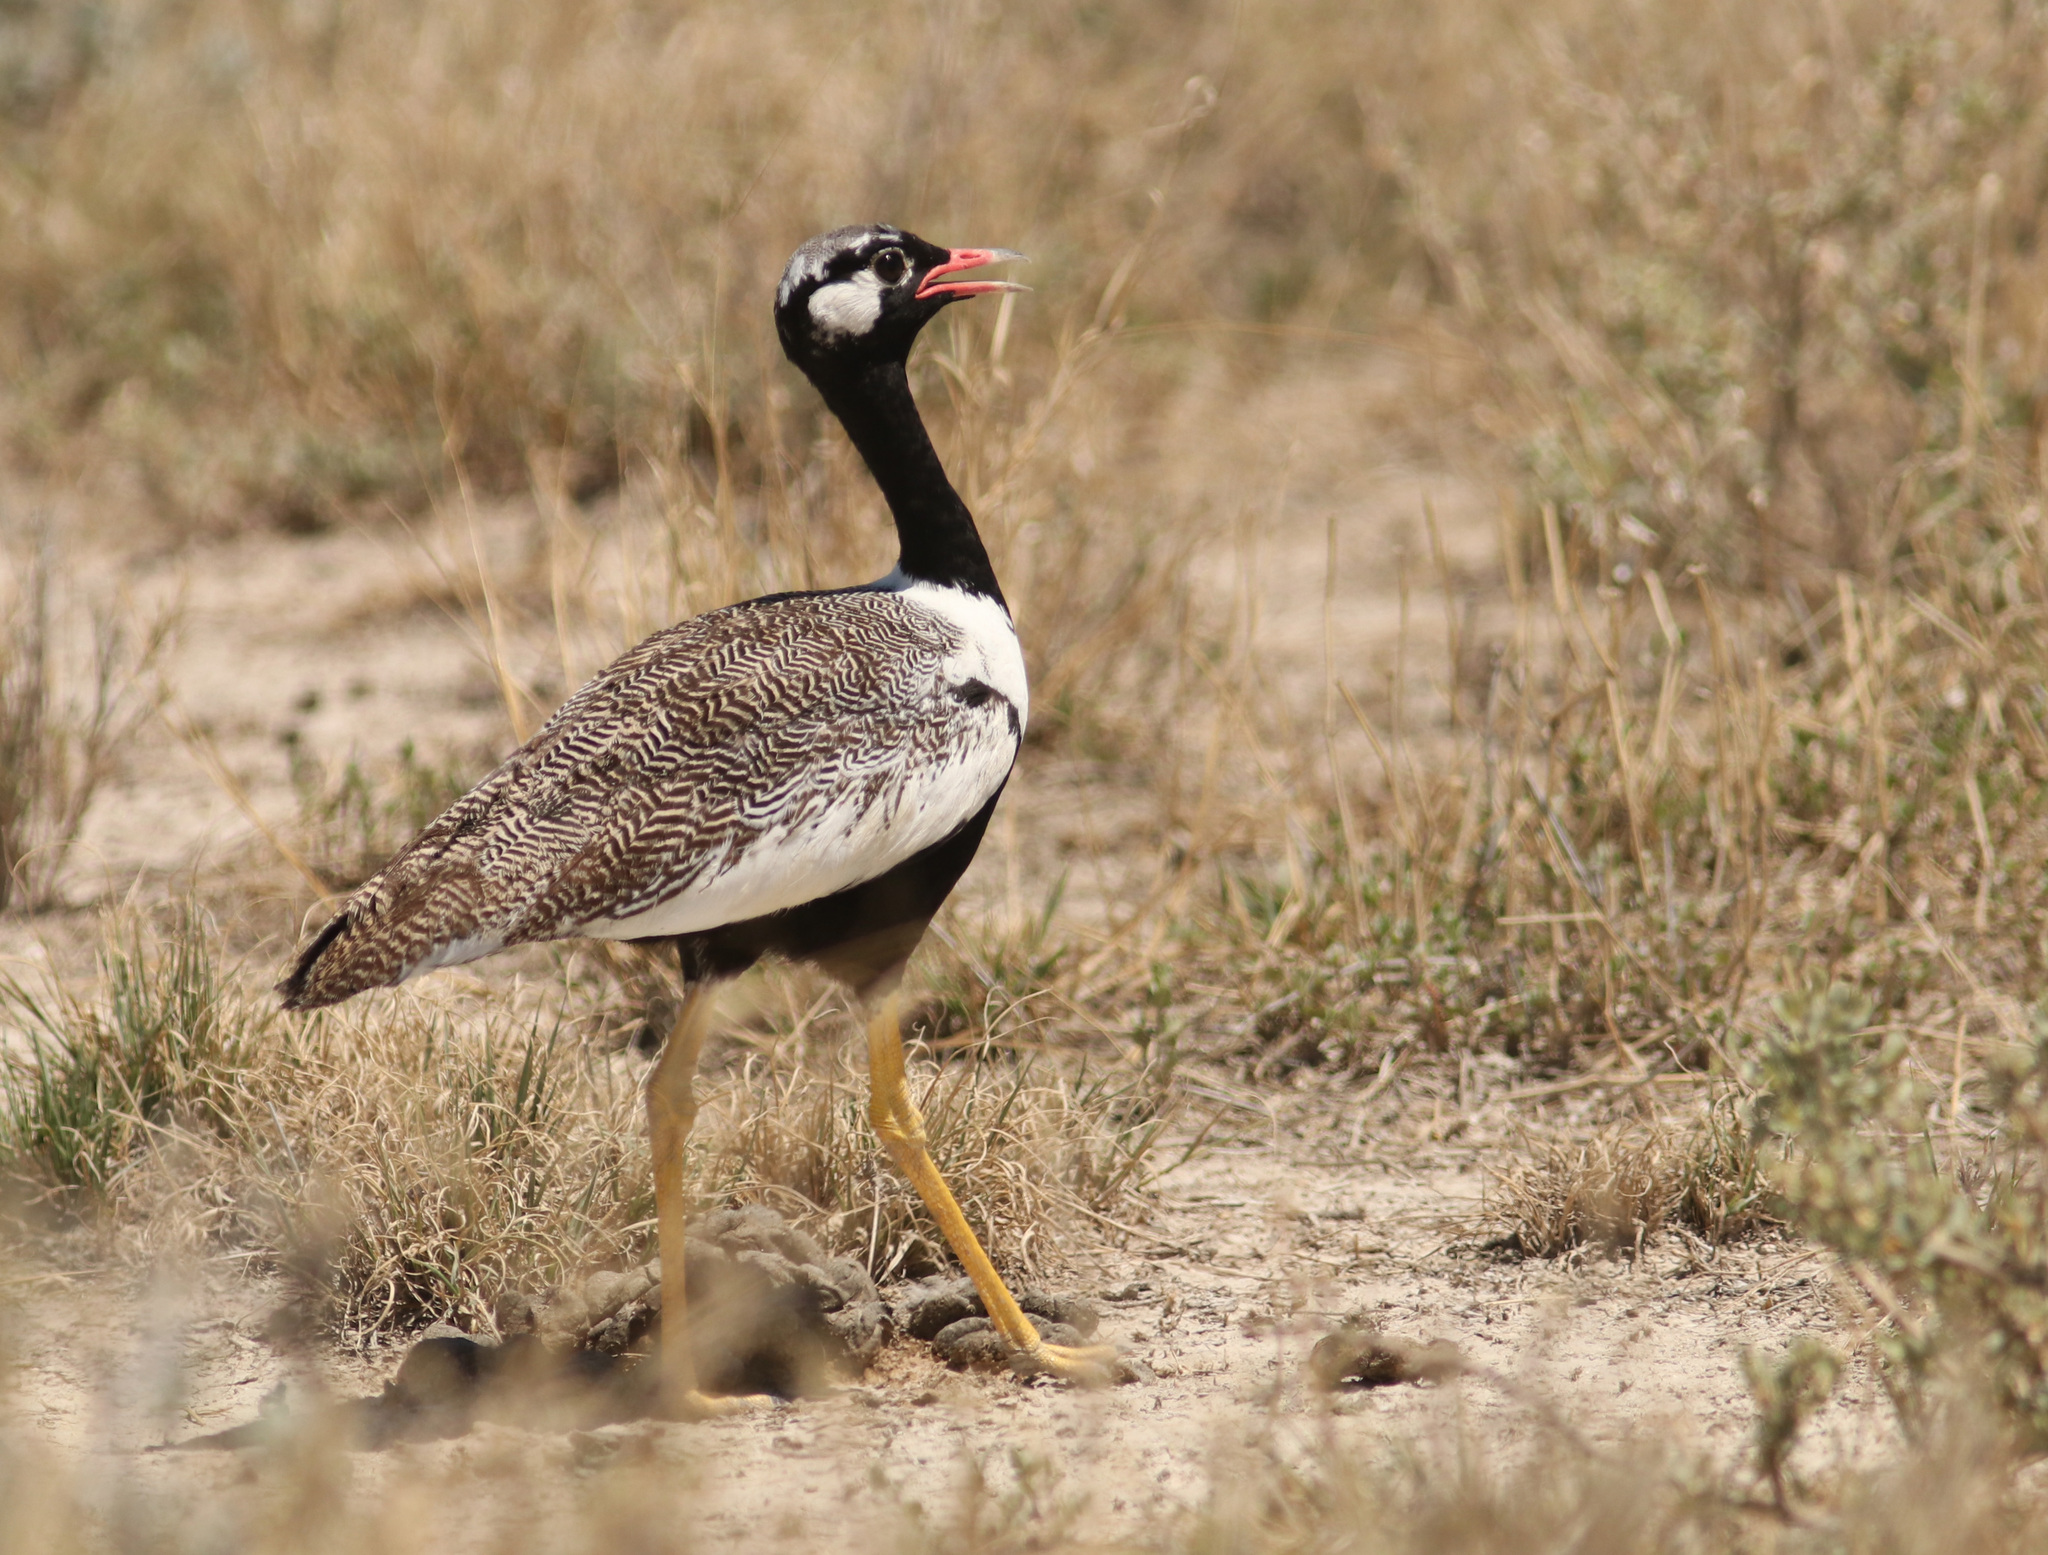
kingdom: Animalia
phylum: Chordata
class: Aves
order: Otidiformes
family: Otididae
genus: Afrotis
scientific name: Afrotis afraoides
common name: Northern black korhaan
